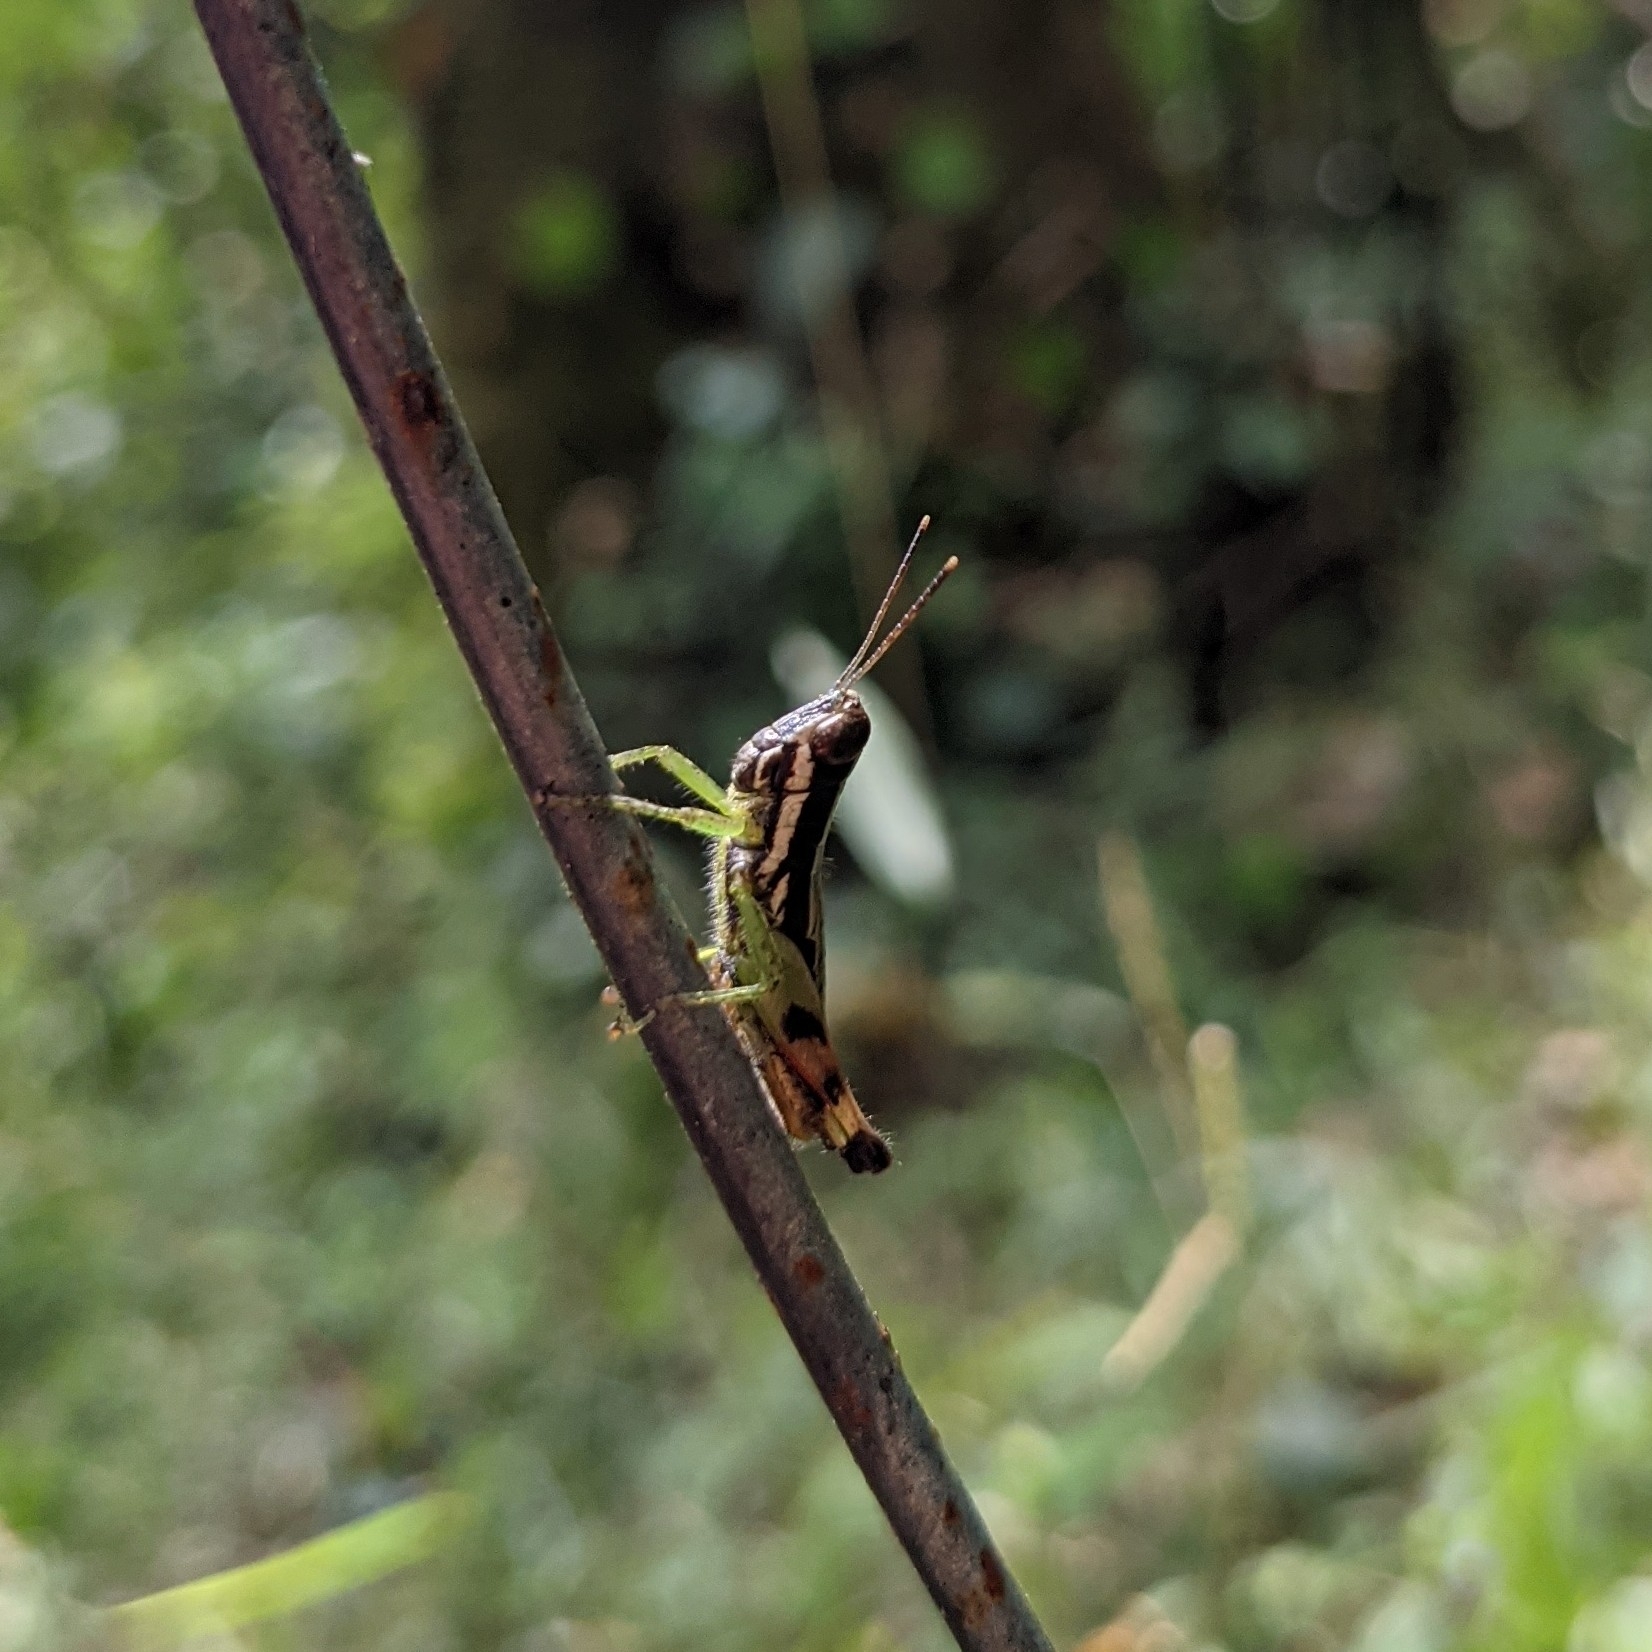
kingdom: Animalia
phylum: Arthropoda
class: Insecta
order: Orthoptera
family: Acrididae
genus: Chitaura
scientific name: Chitaura indica
